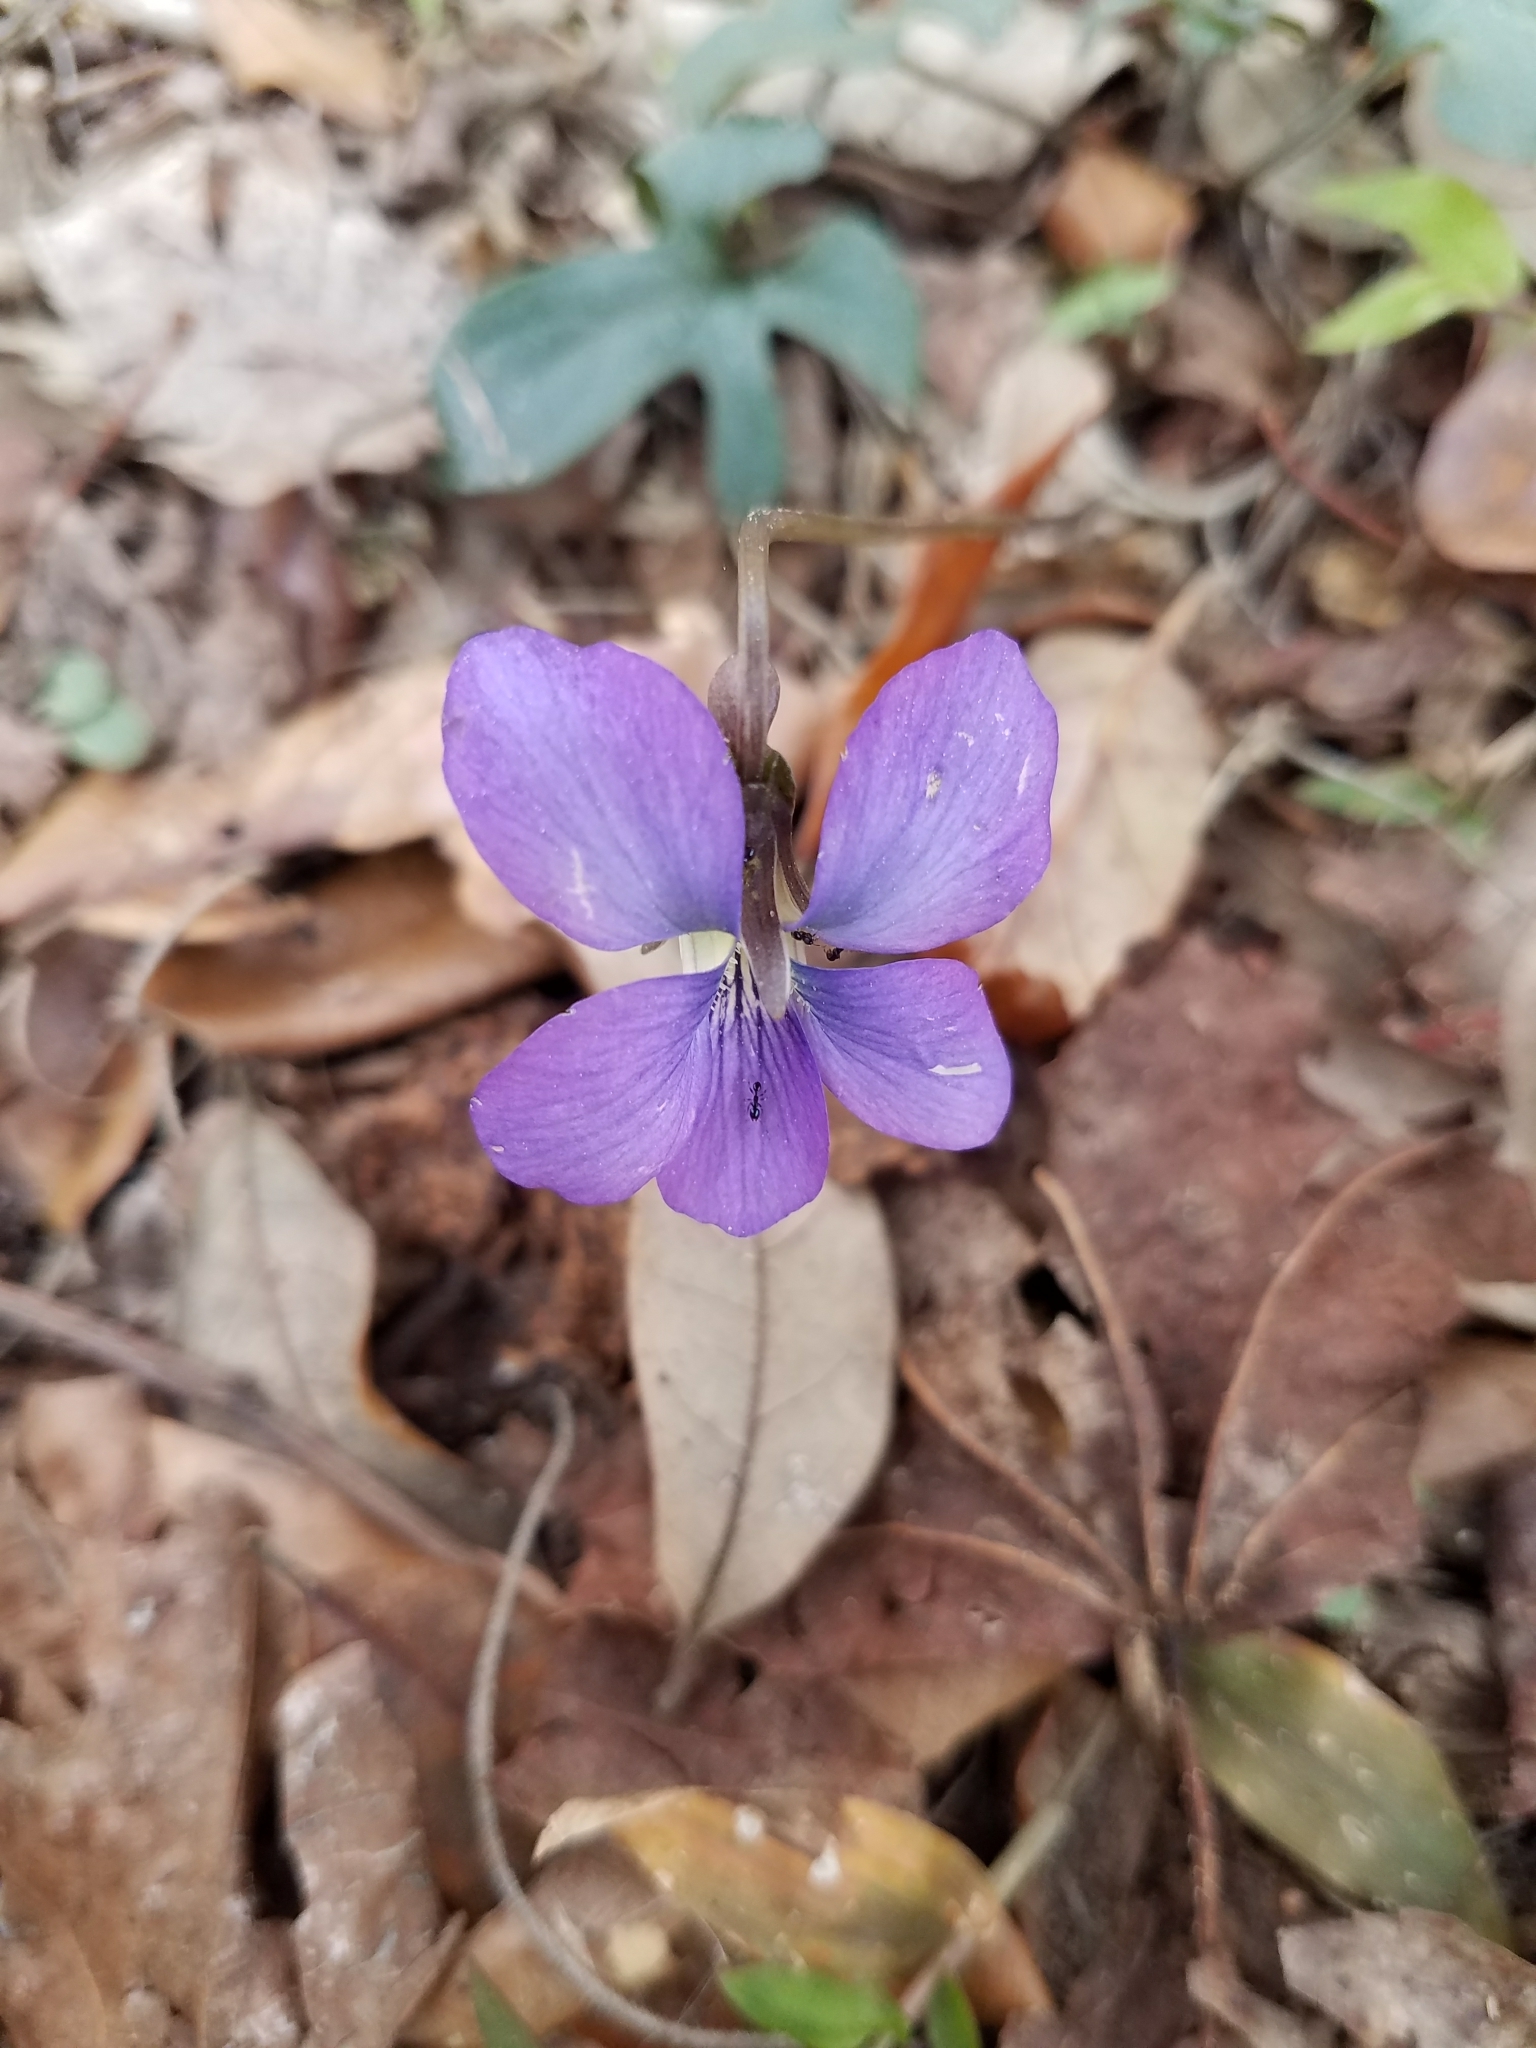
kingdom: Plantae
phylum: Tracheophyta
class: Magnoliopsida
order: Malpighiales
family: Violaceae
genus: Viola
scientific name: Viola palmata
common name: Early blue violet
